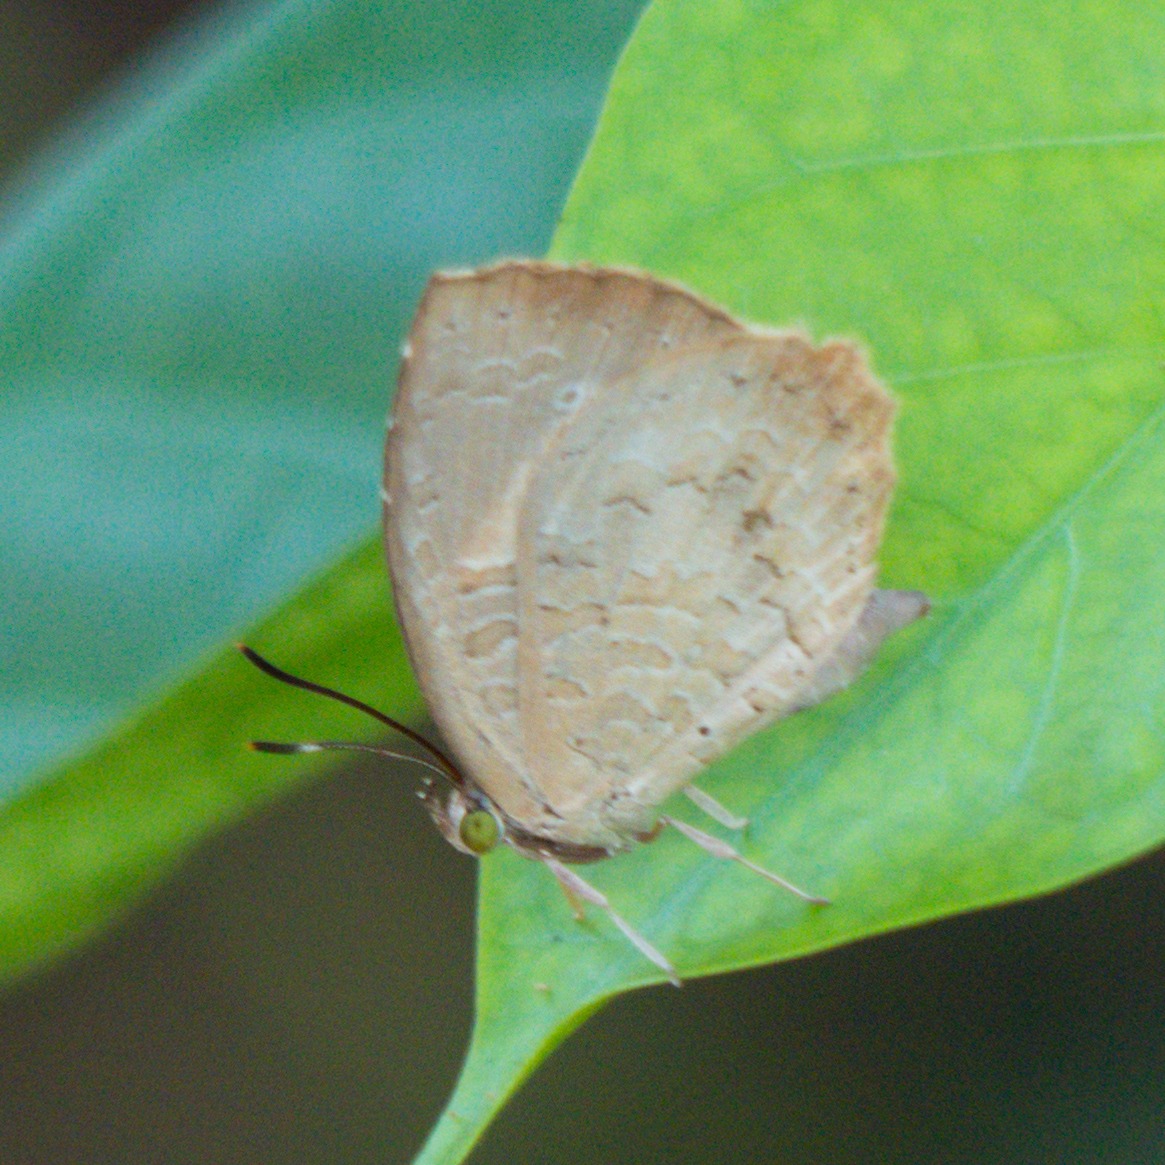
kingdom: Animalia
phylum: Arthropoda
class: Insecta
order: Lepidoptera
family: Lycaenidae
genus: Miletus
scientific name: Miletus chinensis
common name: Common brownie
